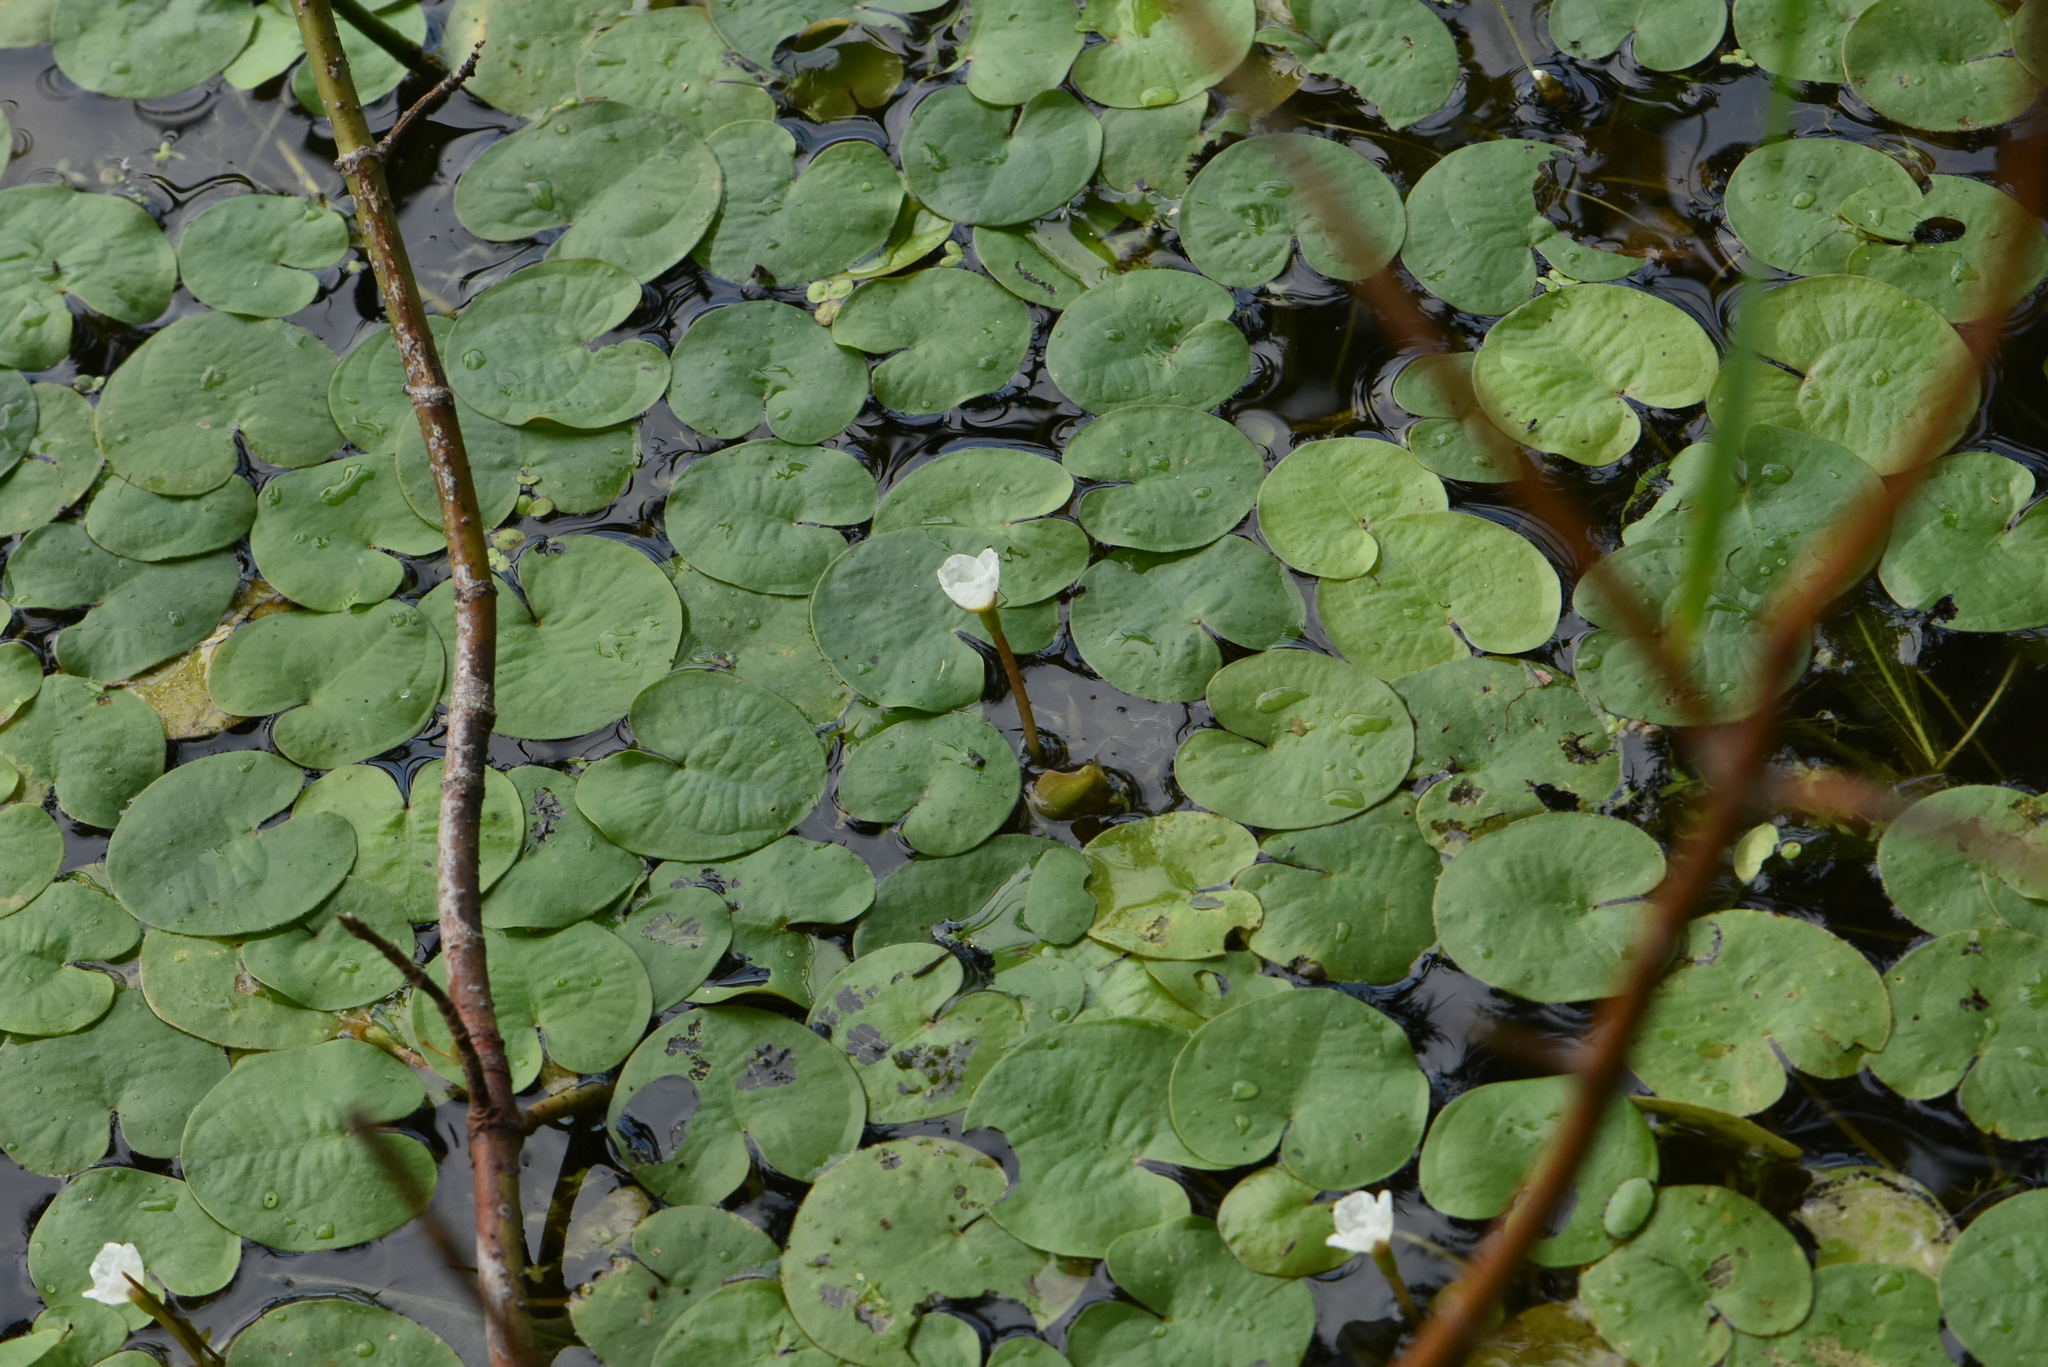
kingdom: Plantae
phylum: Tracheophyta
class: Liliopsida
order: Alismatales
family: Hydrocharitaceae
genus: Hydrocharis
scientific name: Hydrocharis morsus-ranae
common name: Frogbit
